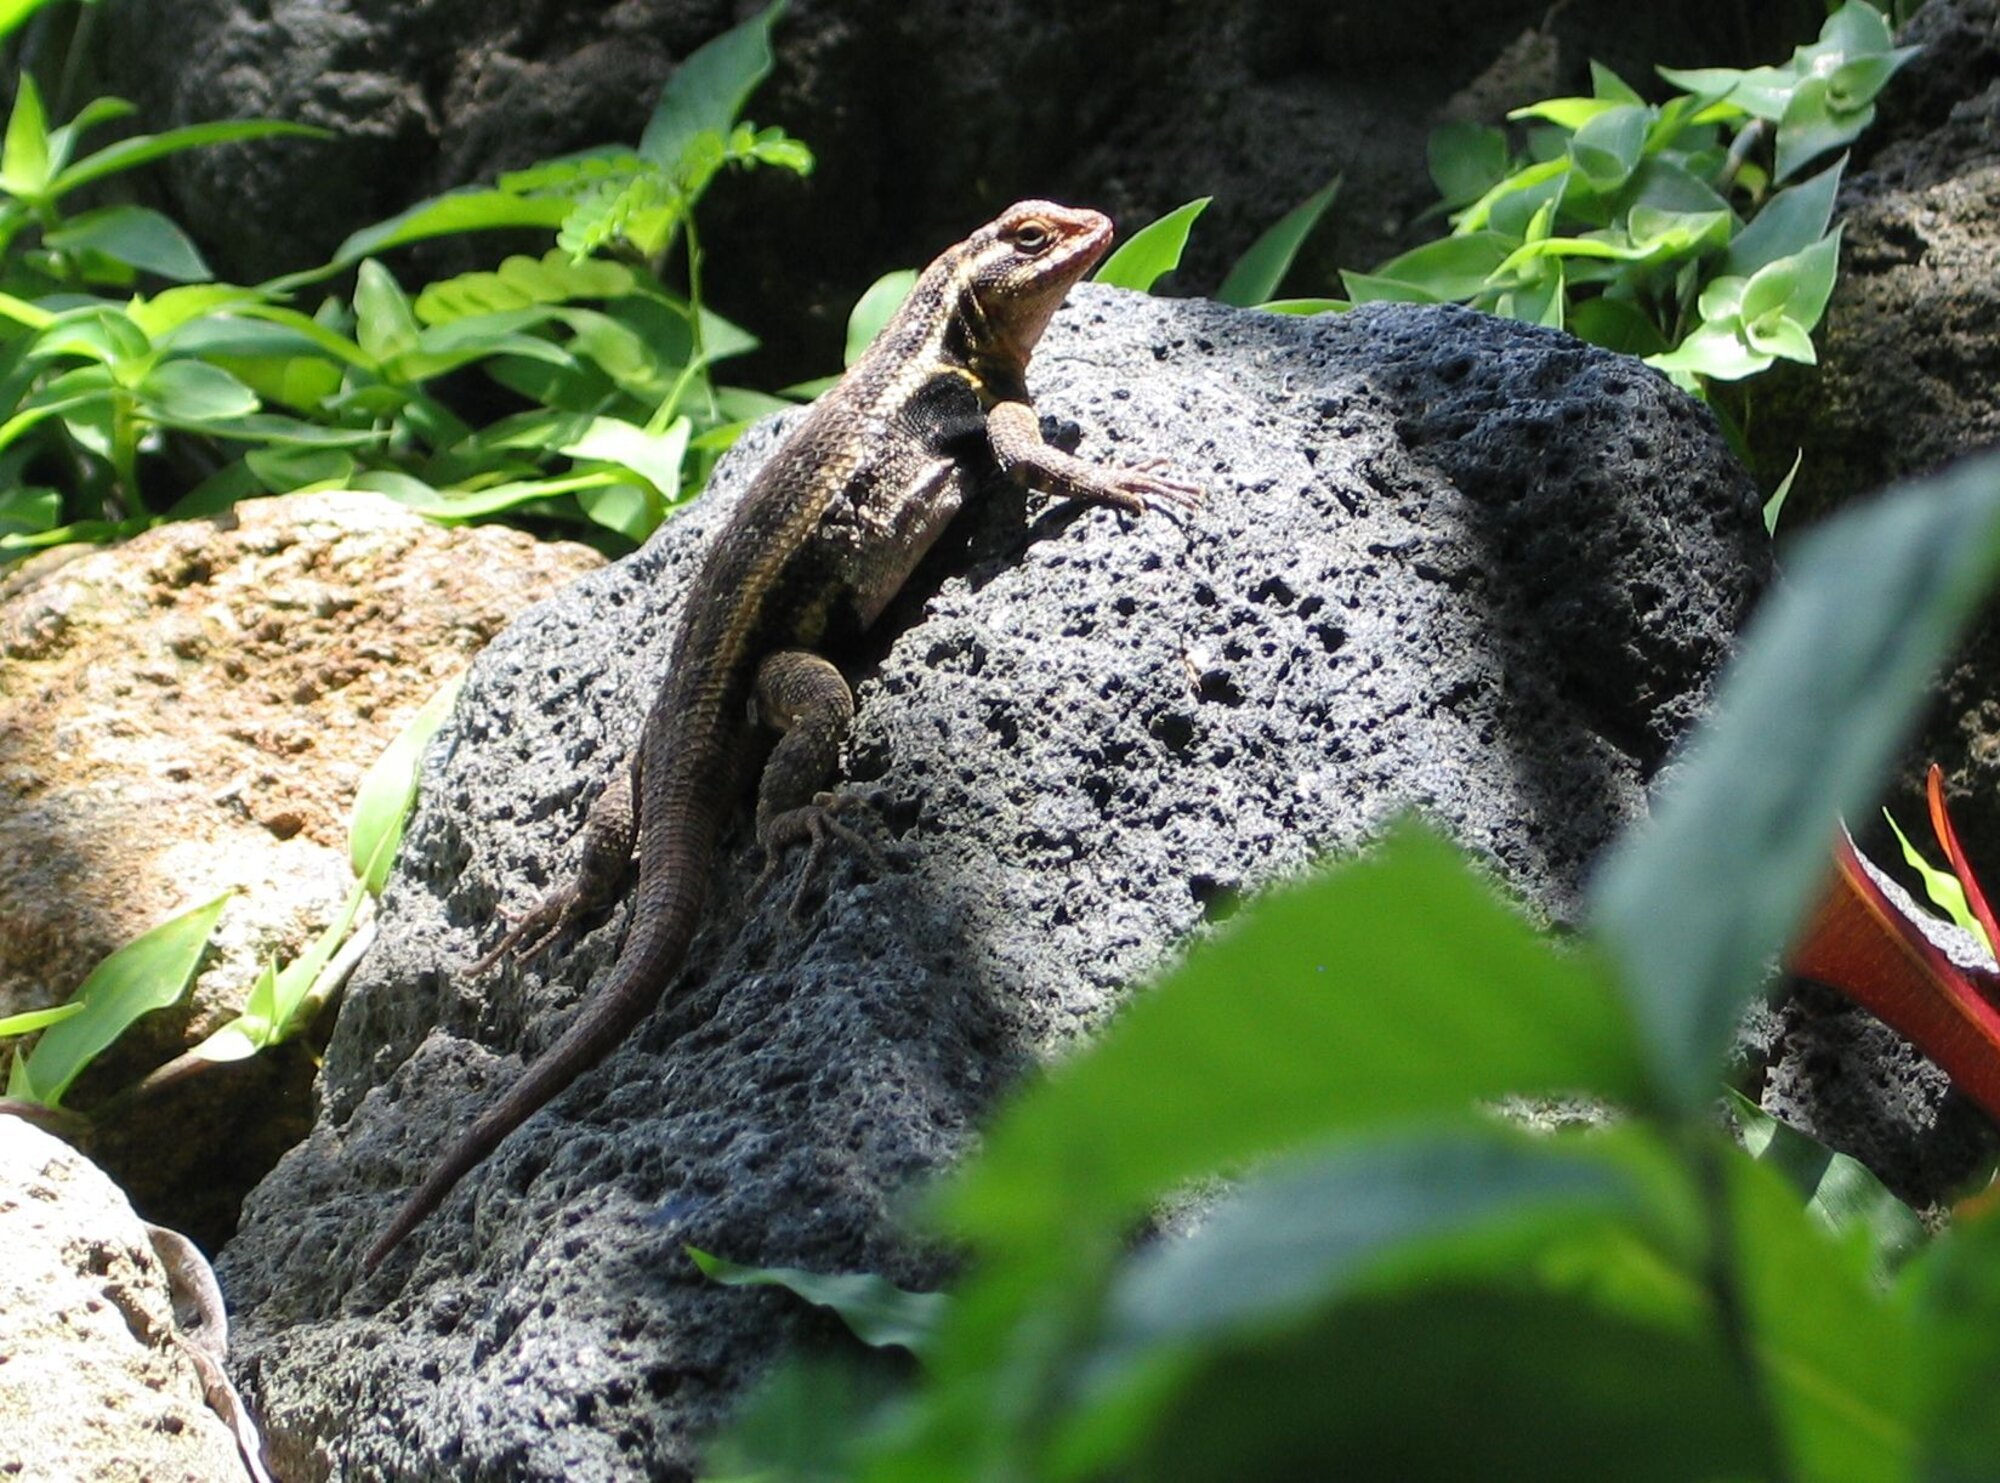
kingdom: Animalia
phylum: Chordata
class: Squamata
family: Phrynosomatidae
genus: Sceloporus
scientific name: Sceloporus variabilis
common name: Rosebelly lizard
